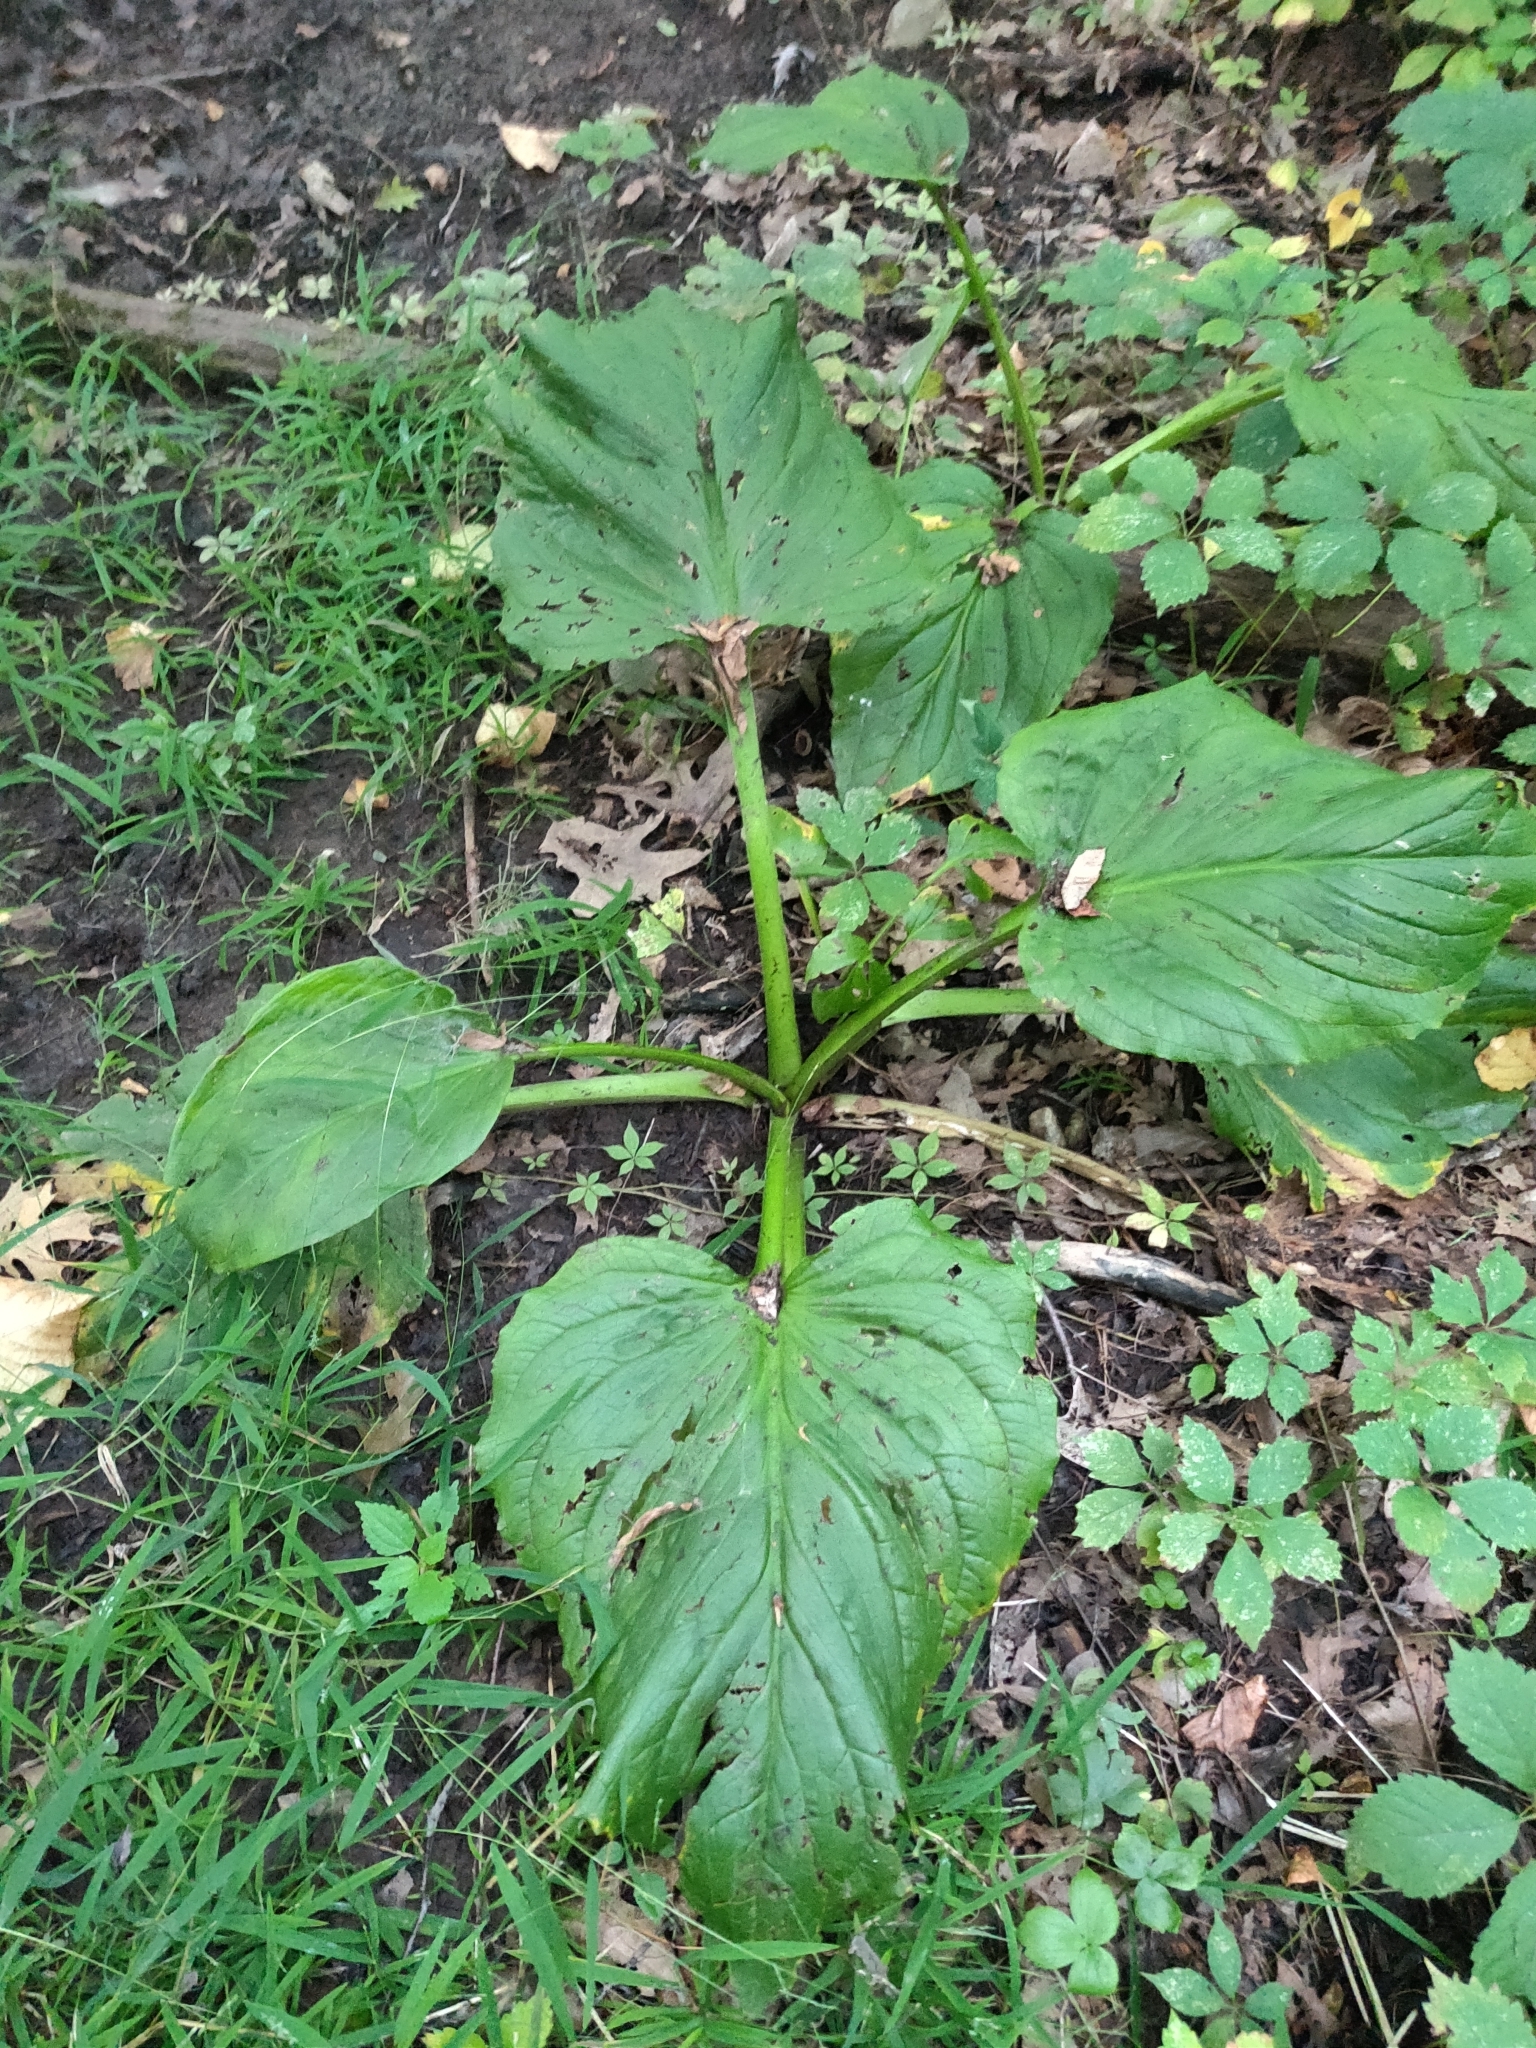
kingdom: Plantae
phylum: Tracheophyta
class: Liliopsida
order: Alismatales
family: Araceae
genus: Symplocarpus
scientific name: Symplocarpus foetidus
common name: Eastern skunk cabbage
